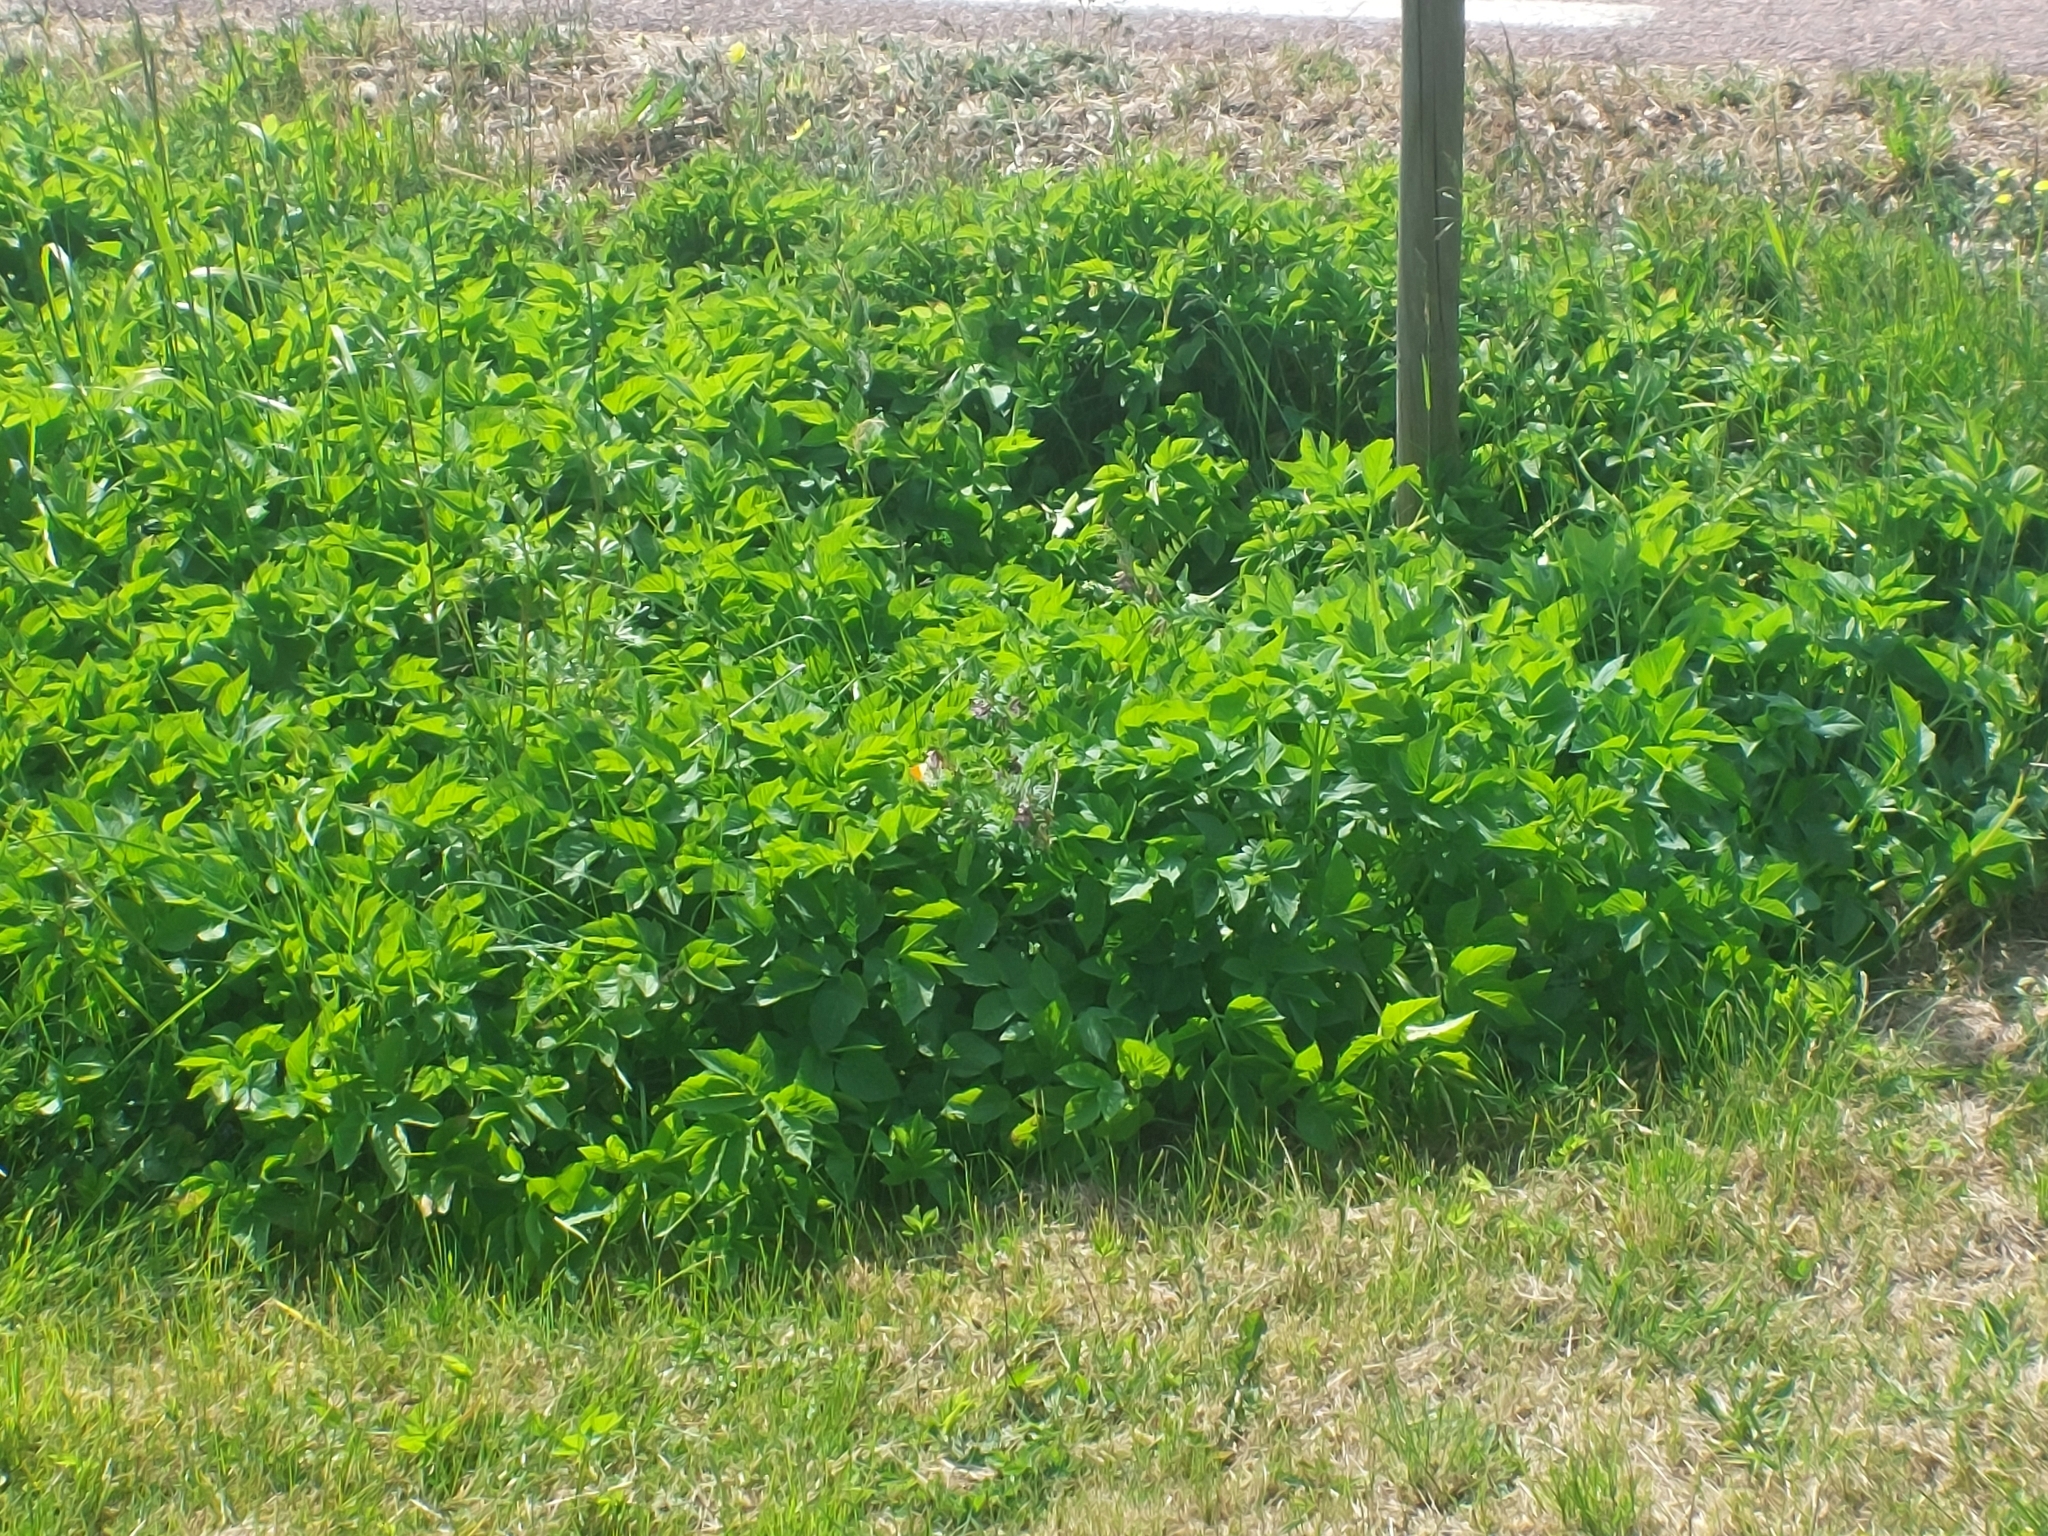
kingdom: Animalia
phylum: Arthropoda
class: Insecta
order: Lepidoptera
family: Pieridae
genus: Anthocharis
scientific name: Anthocharis cardamines
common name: Orange-tip
